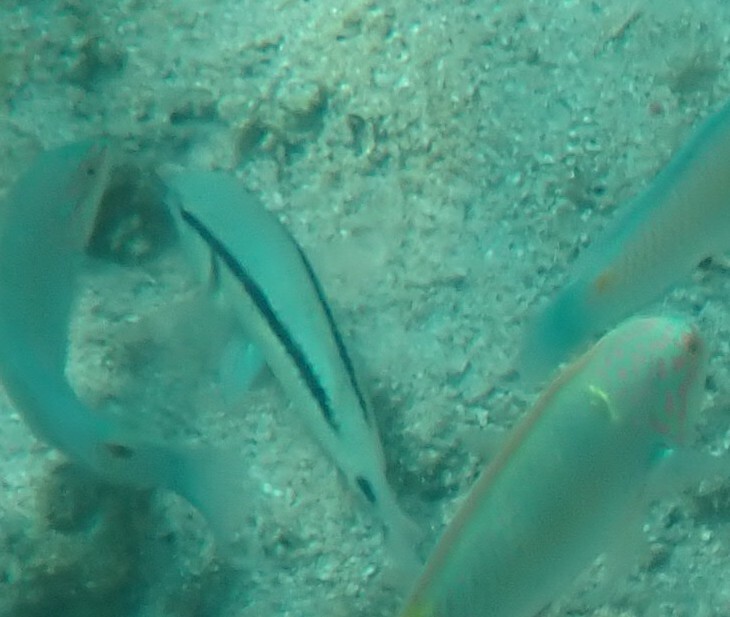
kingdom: Animalia
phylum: Chordata
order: Perciformes
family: Mullidae
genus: Parupeneus
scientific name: Parupeneus barberinus
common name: Dash-and-dot goatfish
